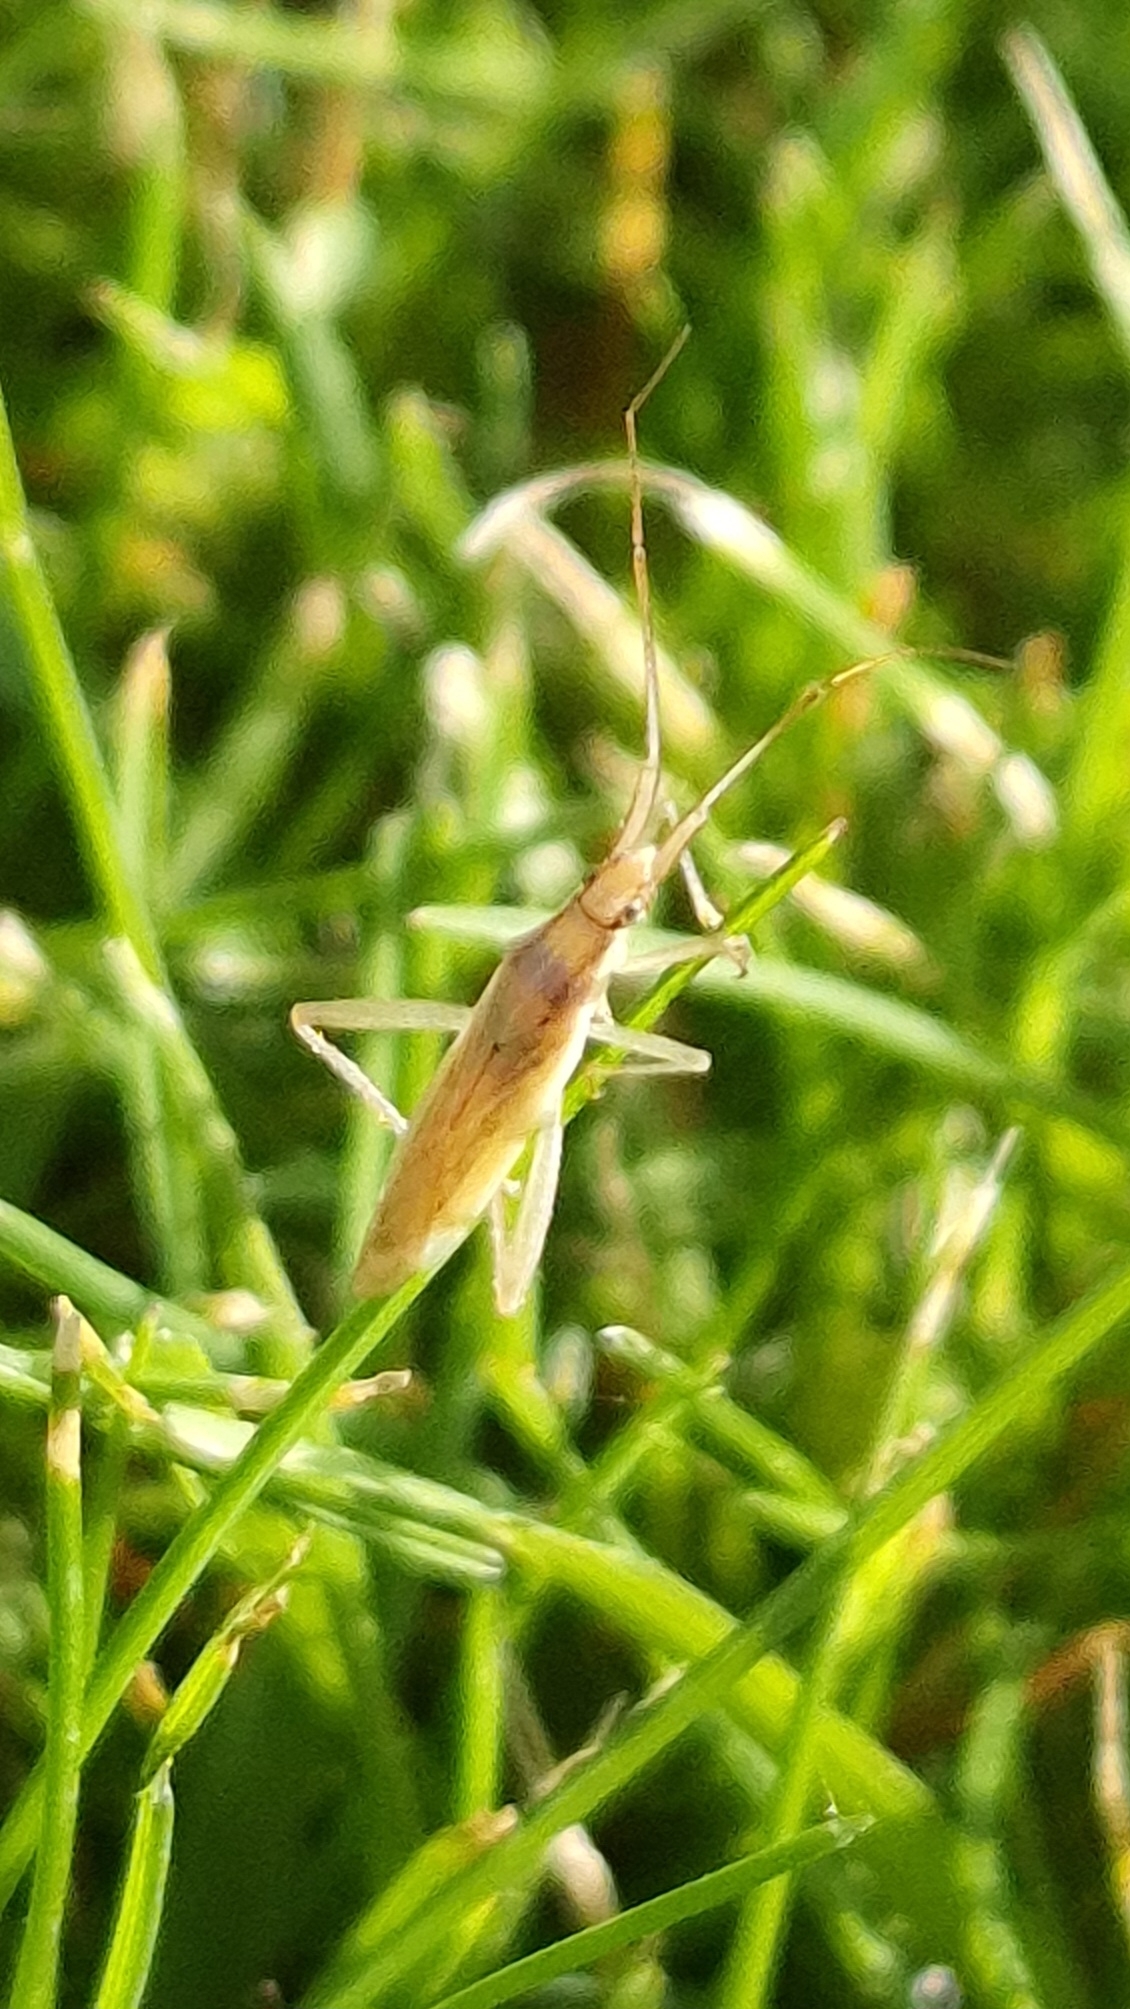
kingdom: Animalia
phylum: Arthropoda
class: Insecta
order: Hemiptera
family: Miridae
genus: Stenodema
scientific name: Stenodema laevigata
